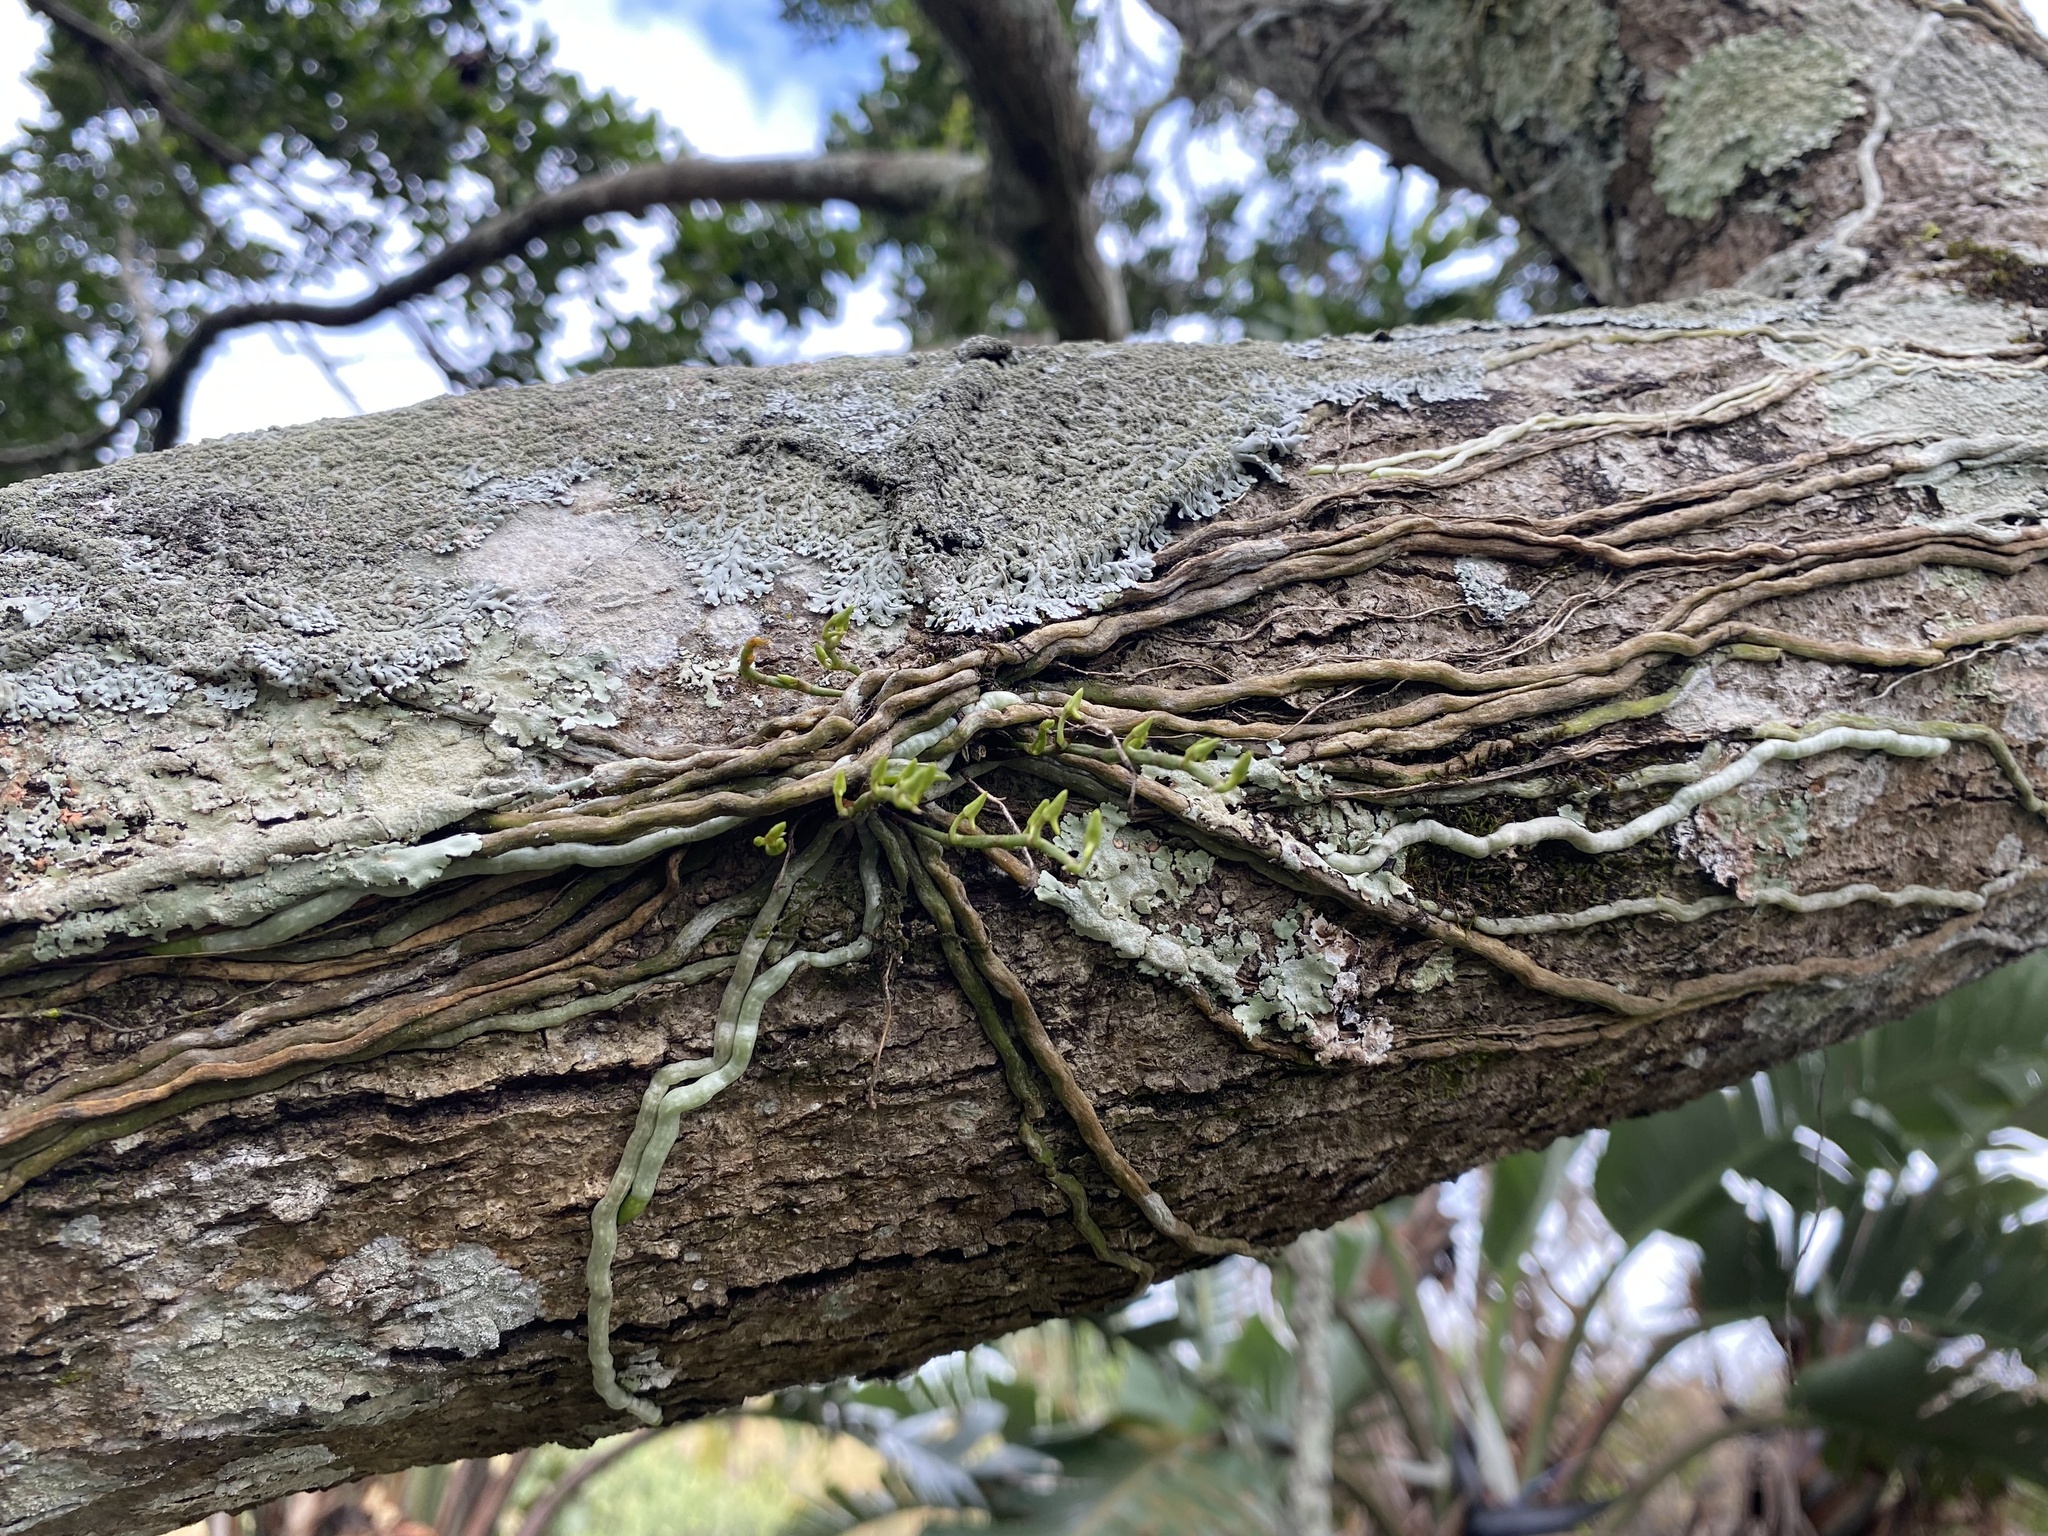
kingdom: Plantae
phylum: Tracheophyta
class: Liliopsida
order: Asparagales
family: Orchidaceae
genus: Mystacidium
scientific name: Mystacidium venosum
